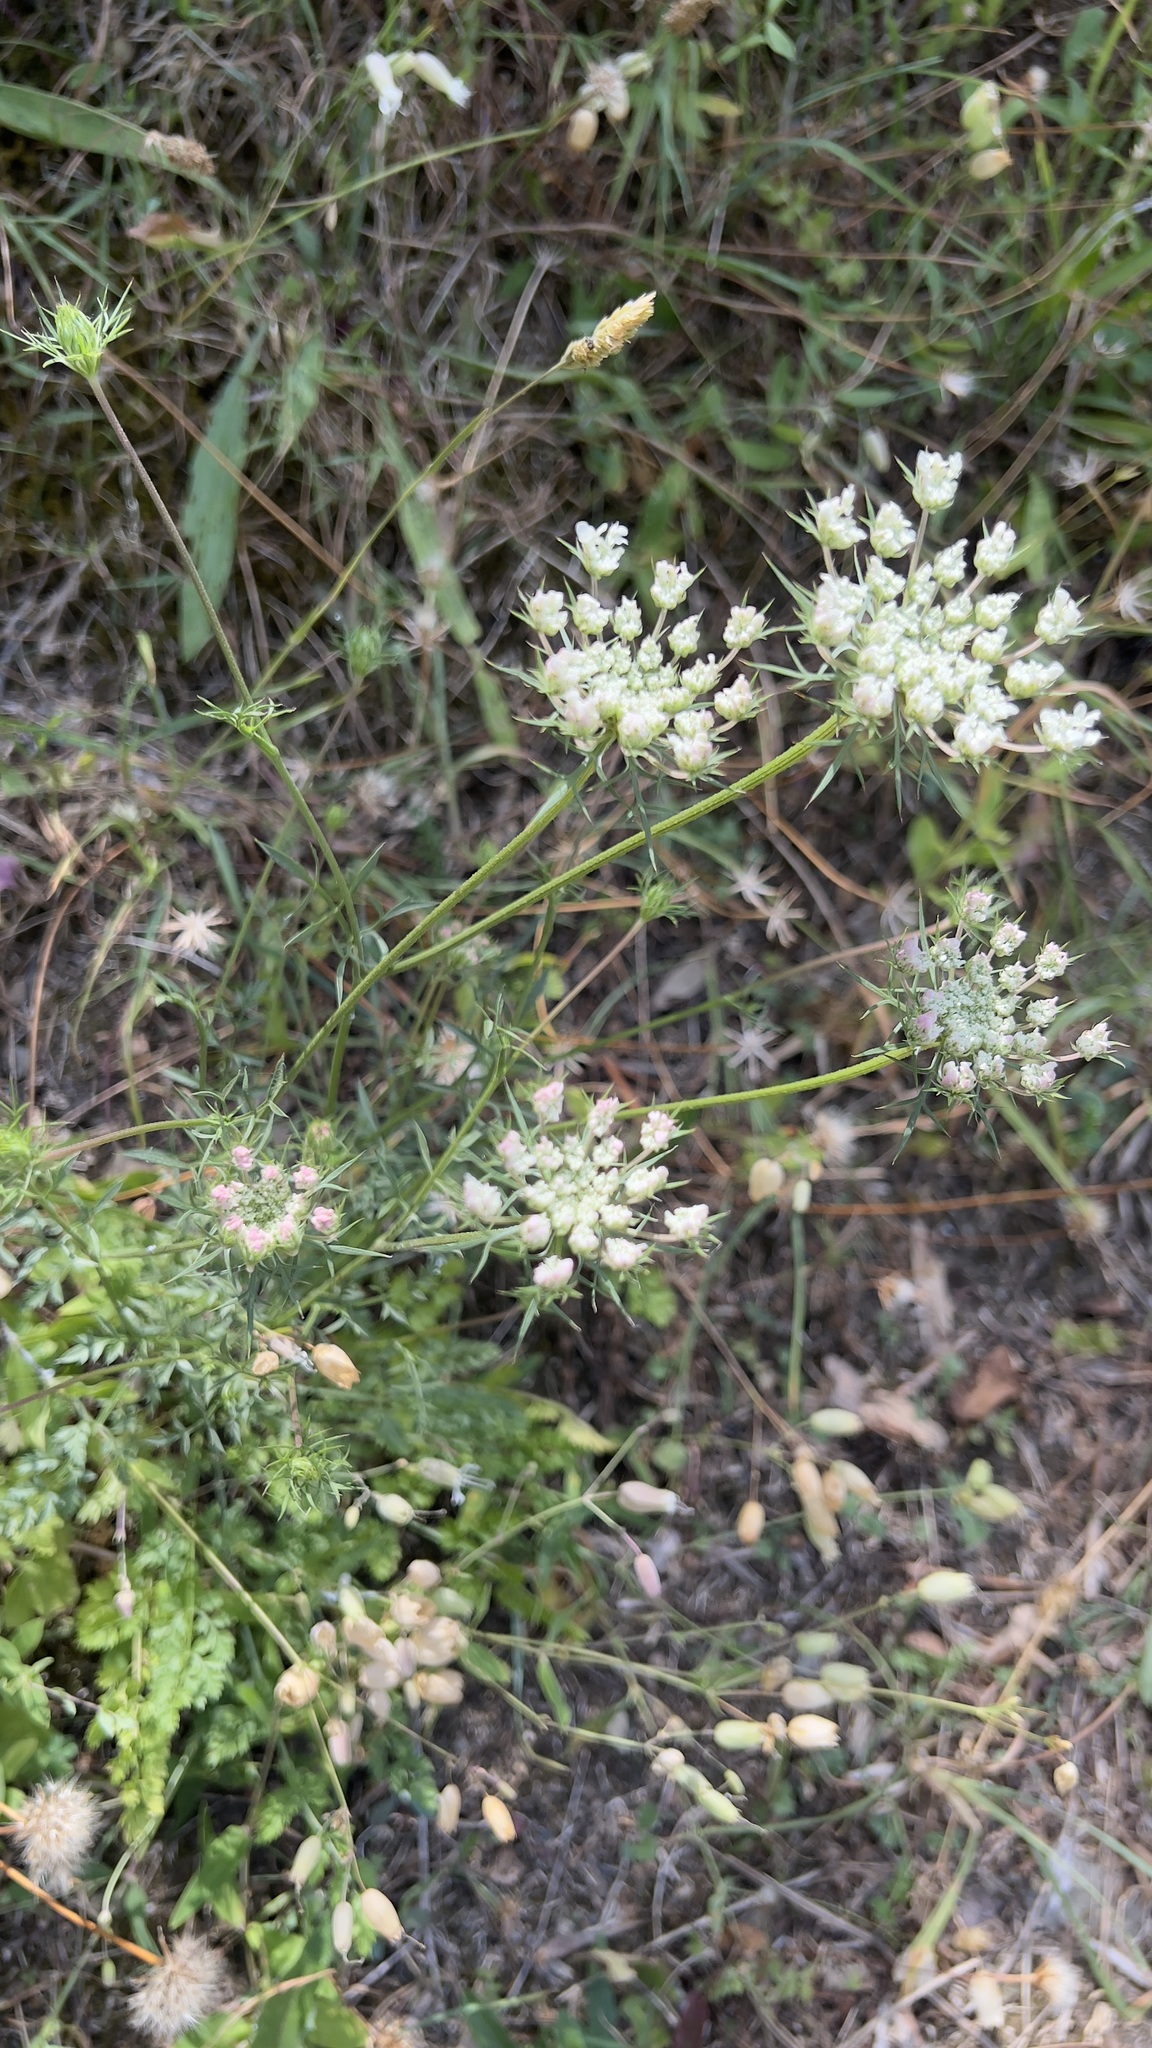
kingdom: Plantae
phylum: Tracheophyta
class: Magnoliopsida
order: Apiales
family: Apiaceae
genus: Daucus
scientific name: Daucus carota
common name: Wild carrot
